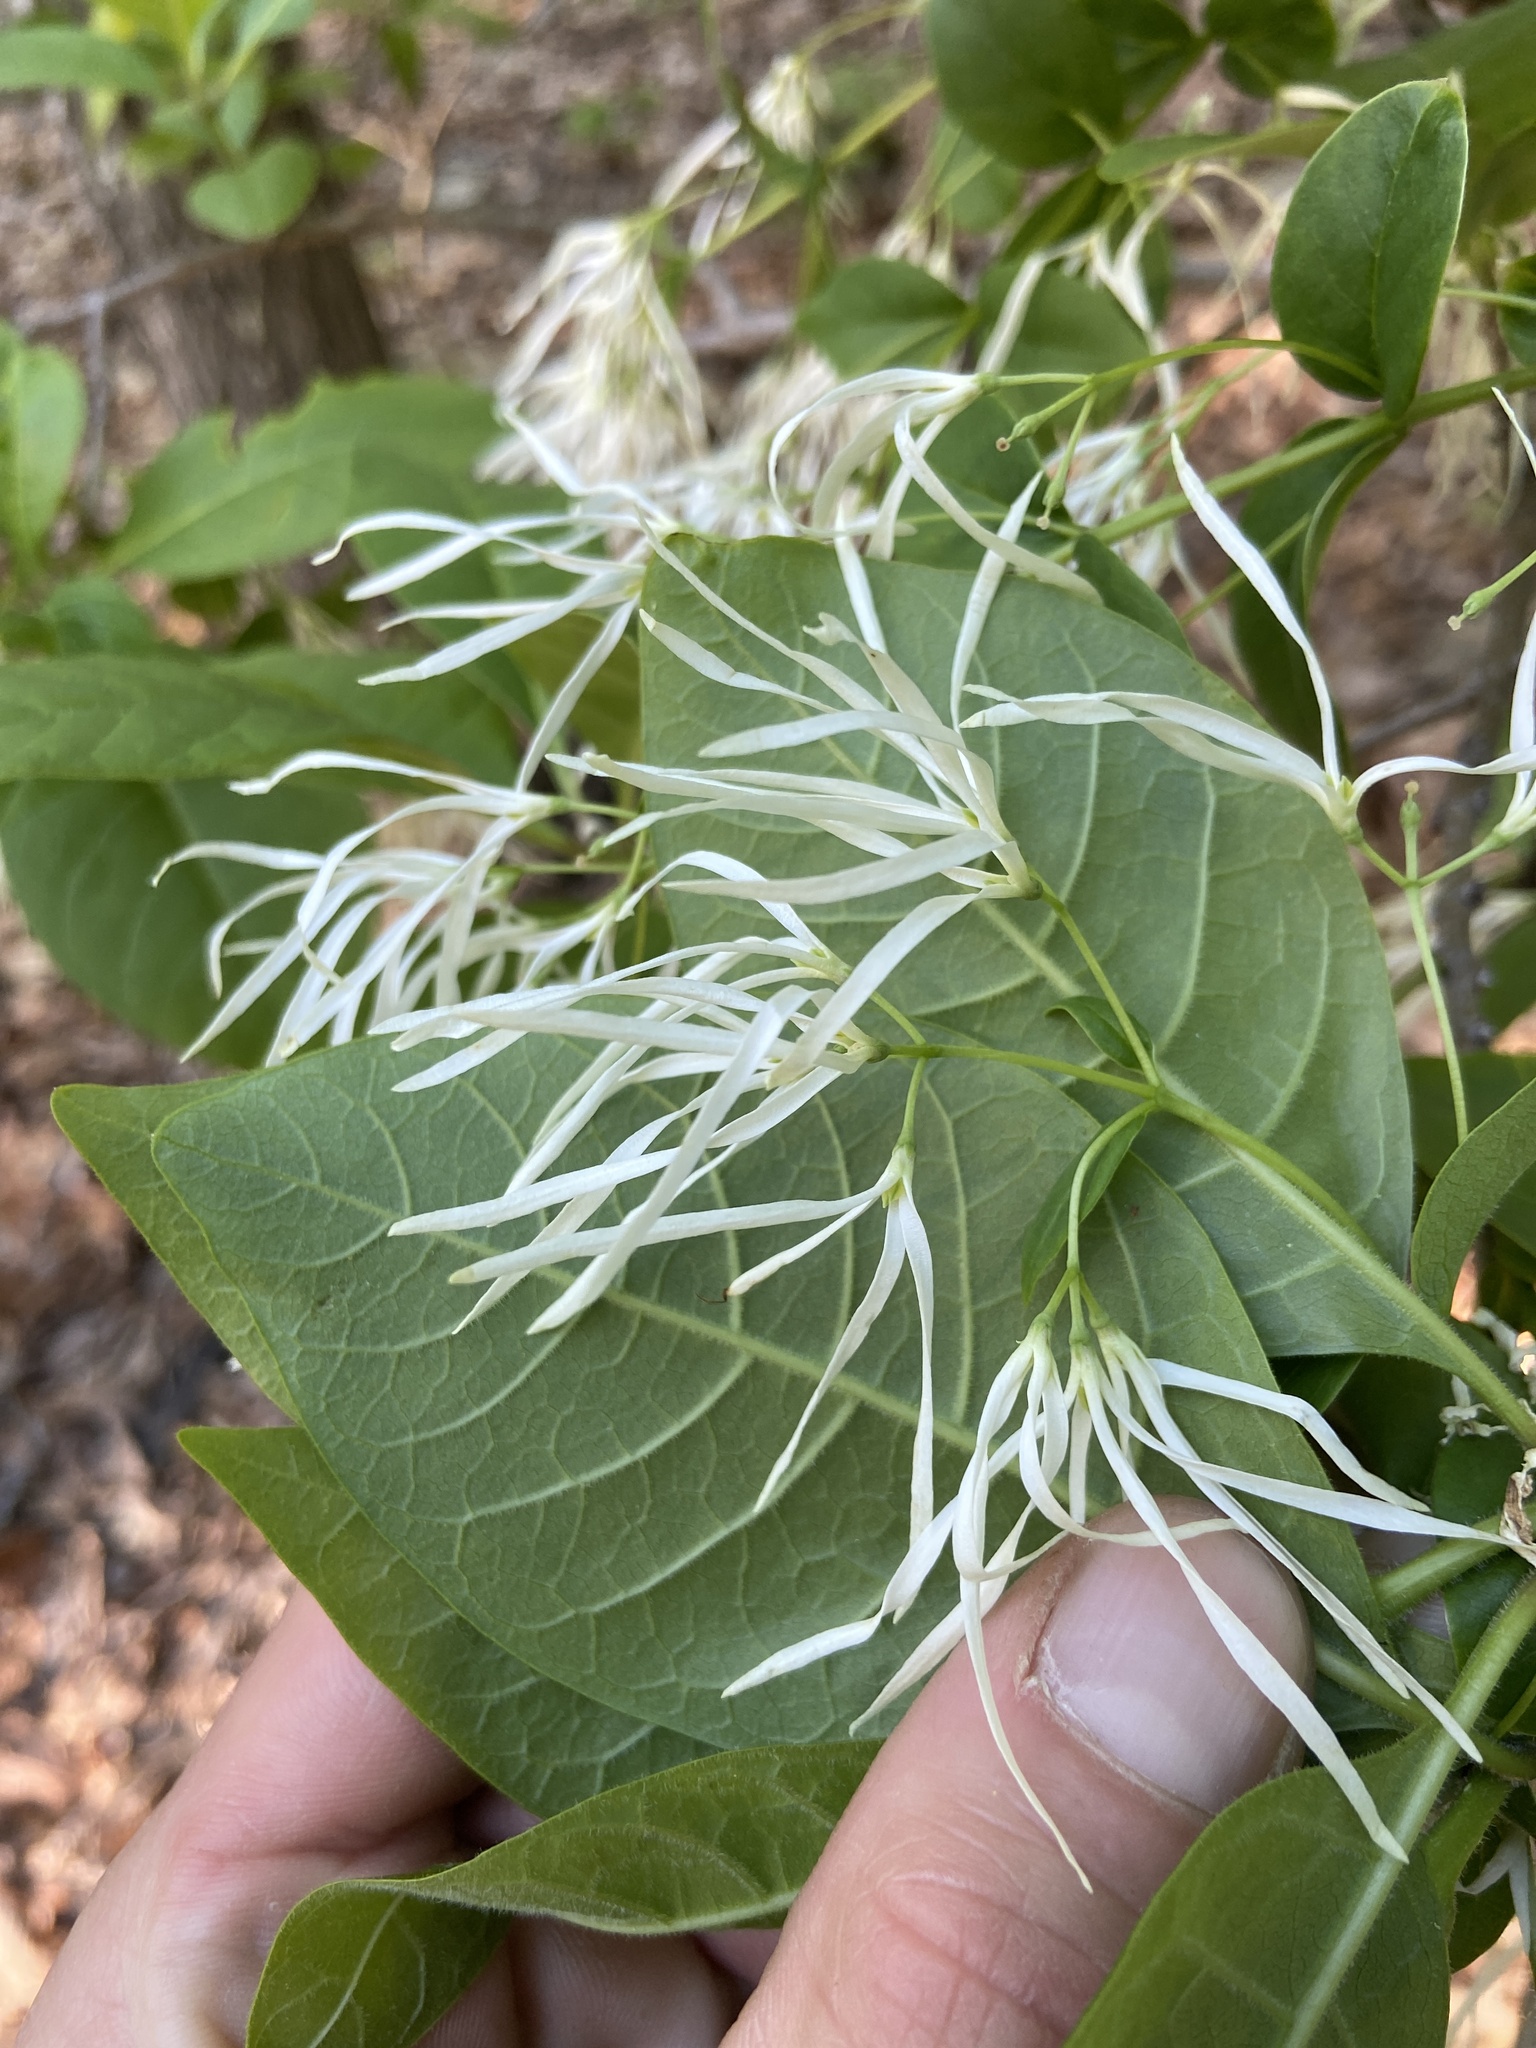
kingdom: Plantae
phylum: Tracheophyta
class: Magnoliopsida
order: Lamiales
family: Oleaceae
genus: Chionanthus
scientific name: Chionanthus virginicus
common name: American fringetree
